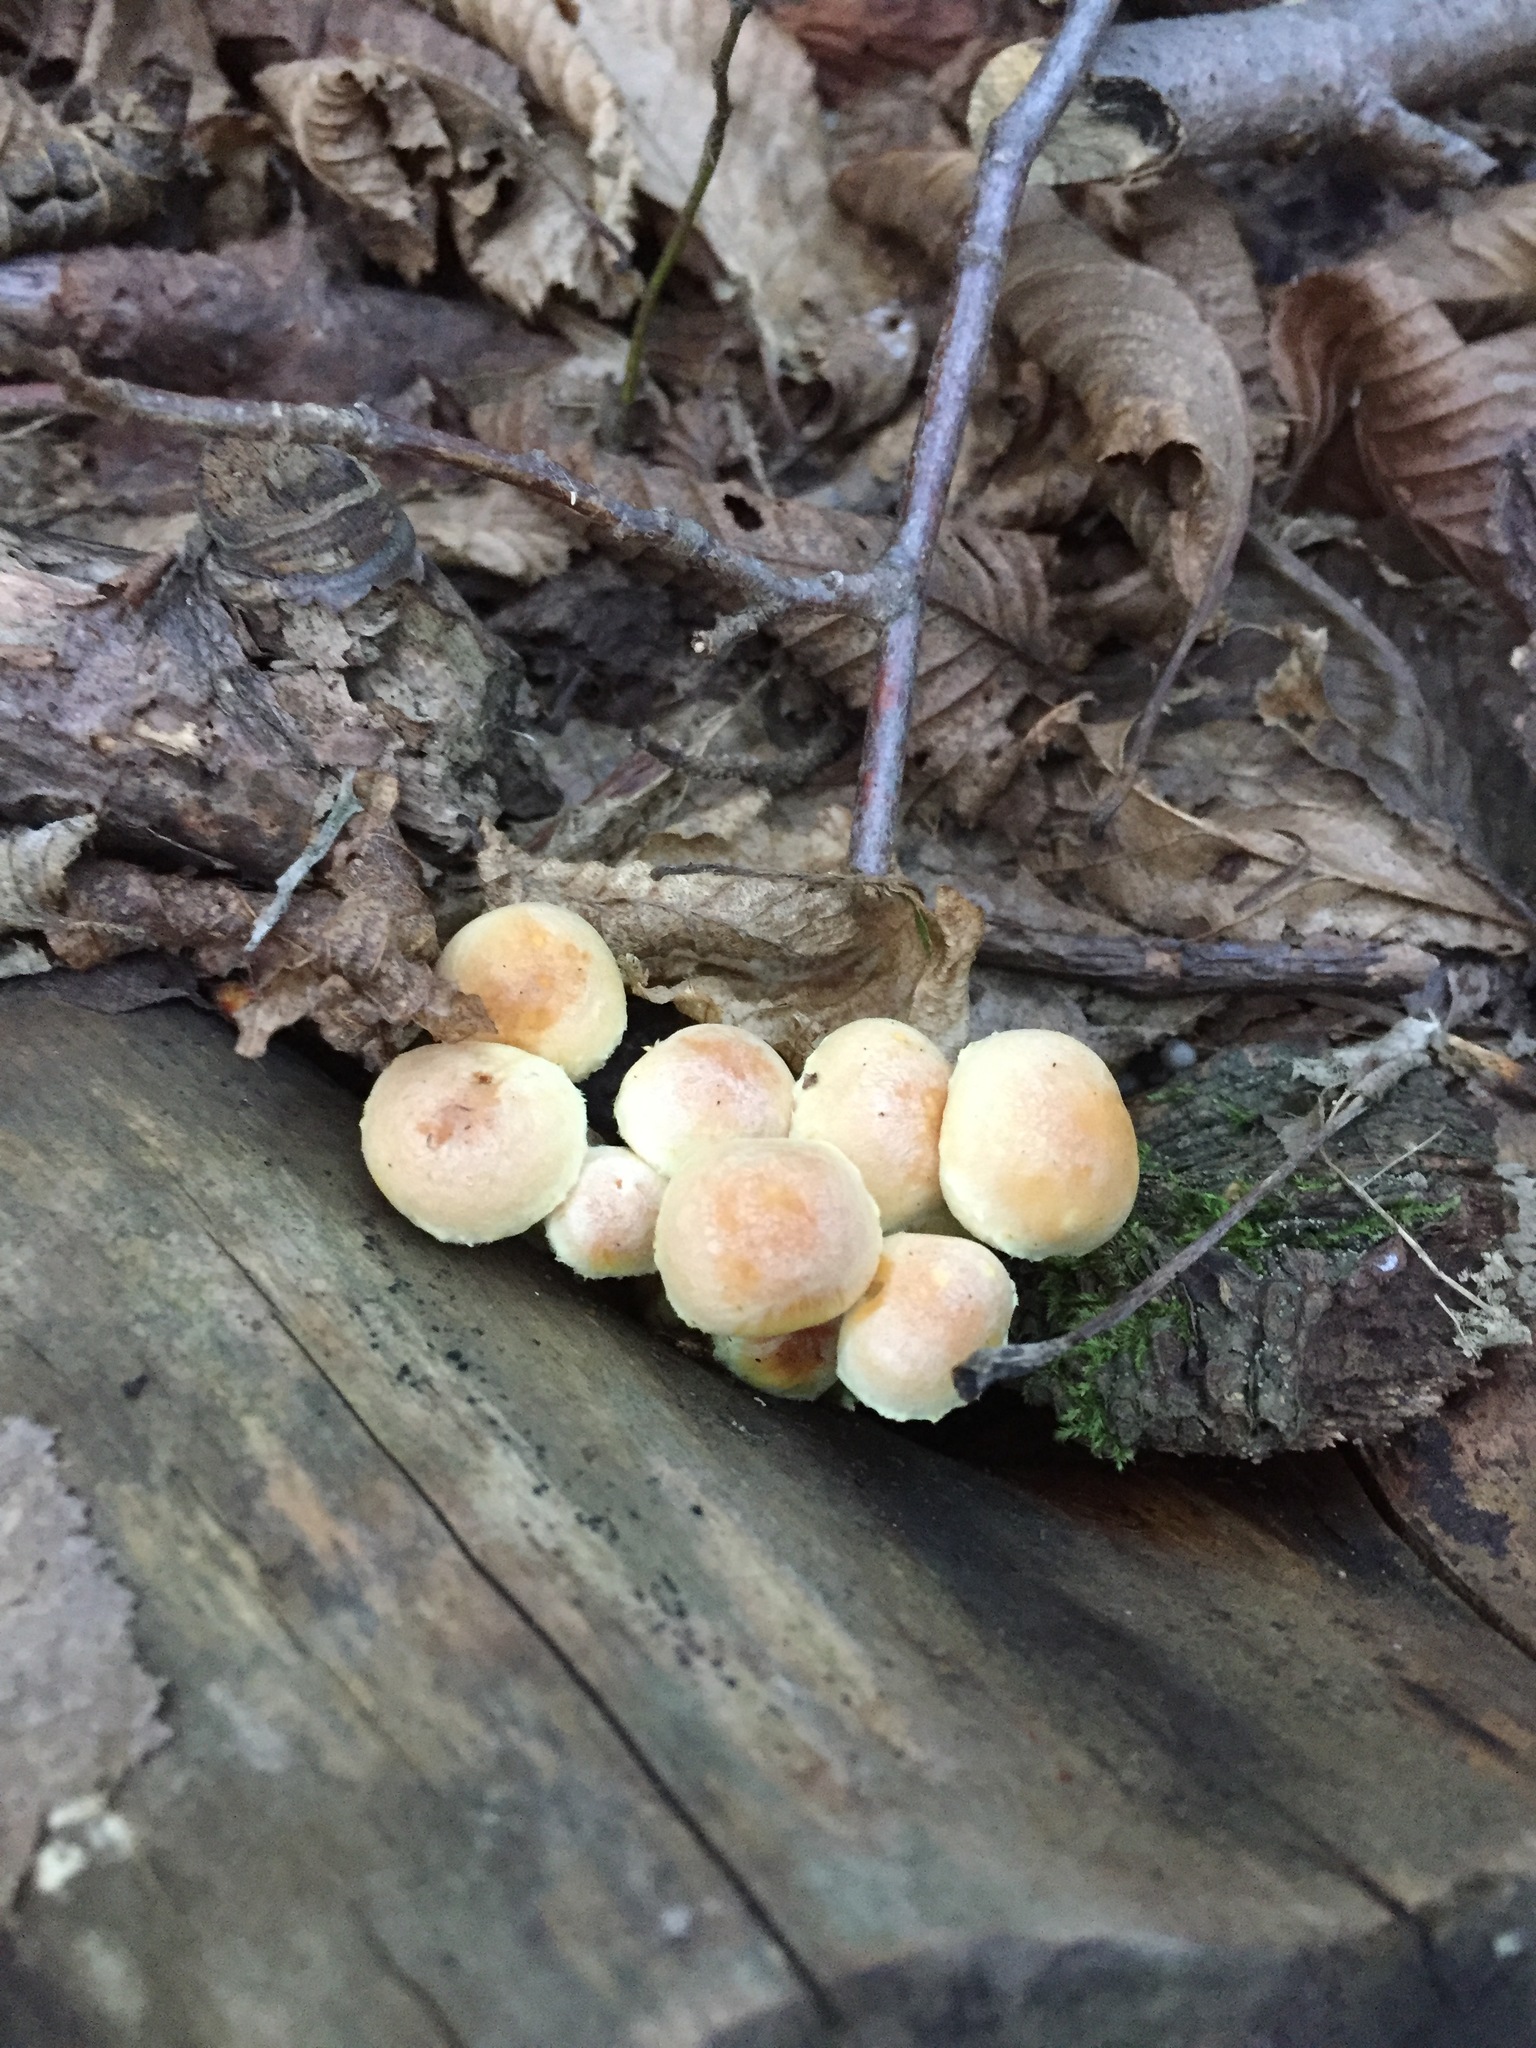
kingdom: Fungi
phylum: Basidiomycota
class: Agaricomycetes
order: Agaricales
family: Strophariaceae
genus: Hypholoma
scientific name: Hypholoma fasciculare
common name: Sulphur tuft
